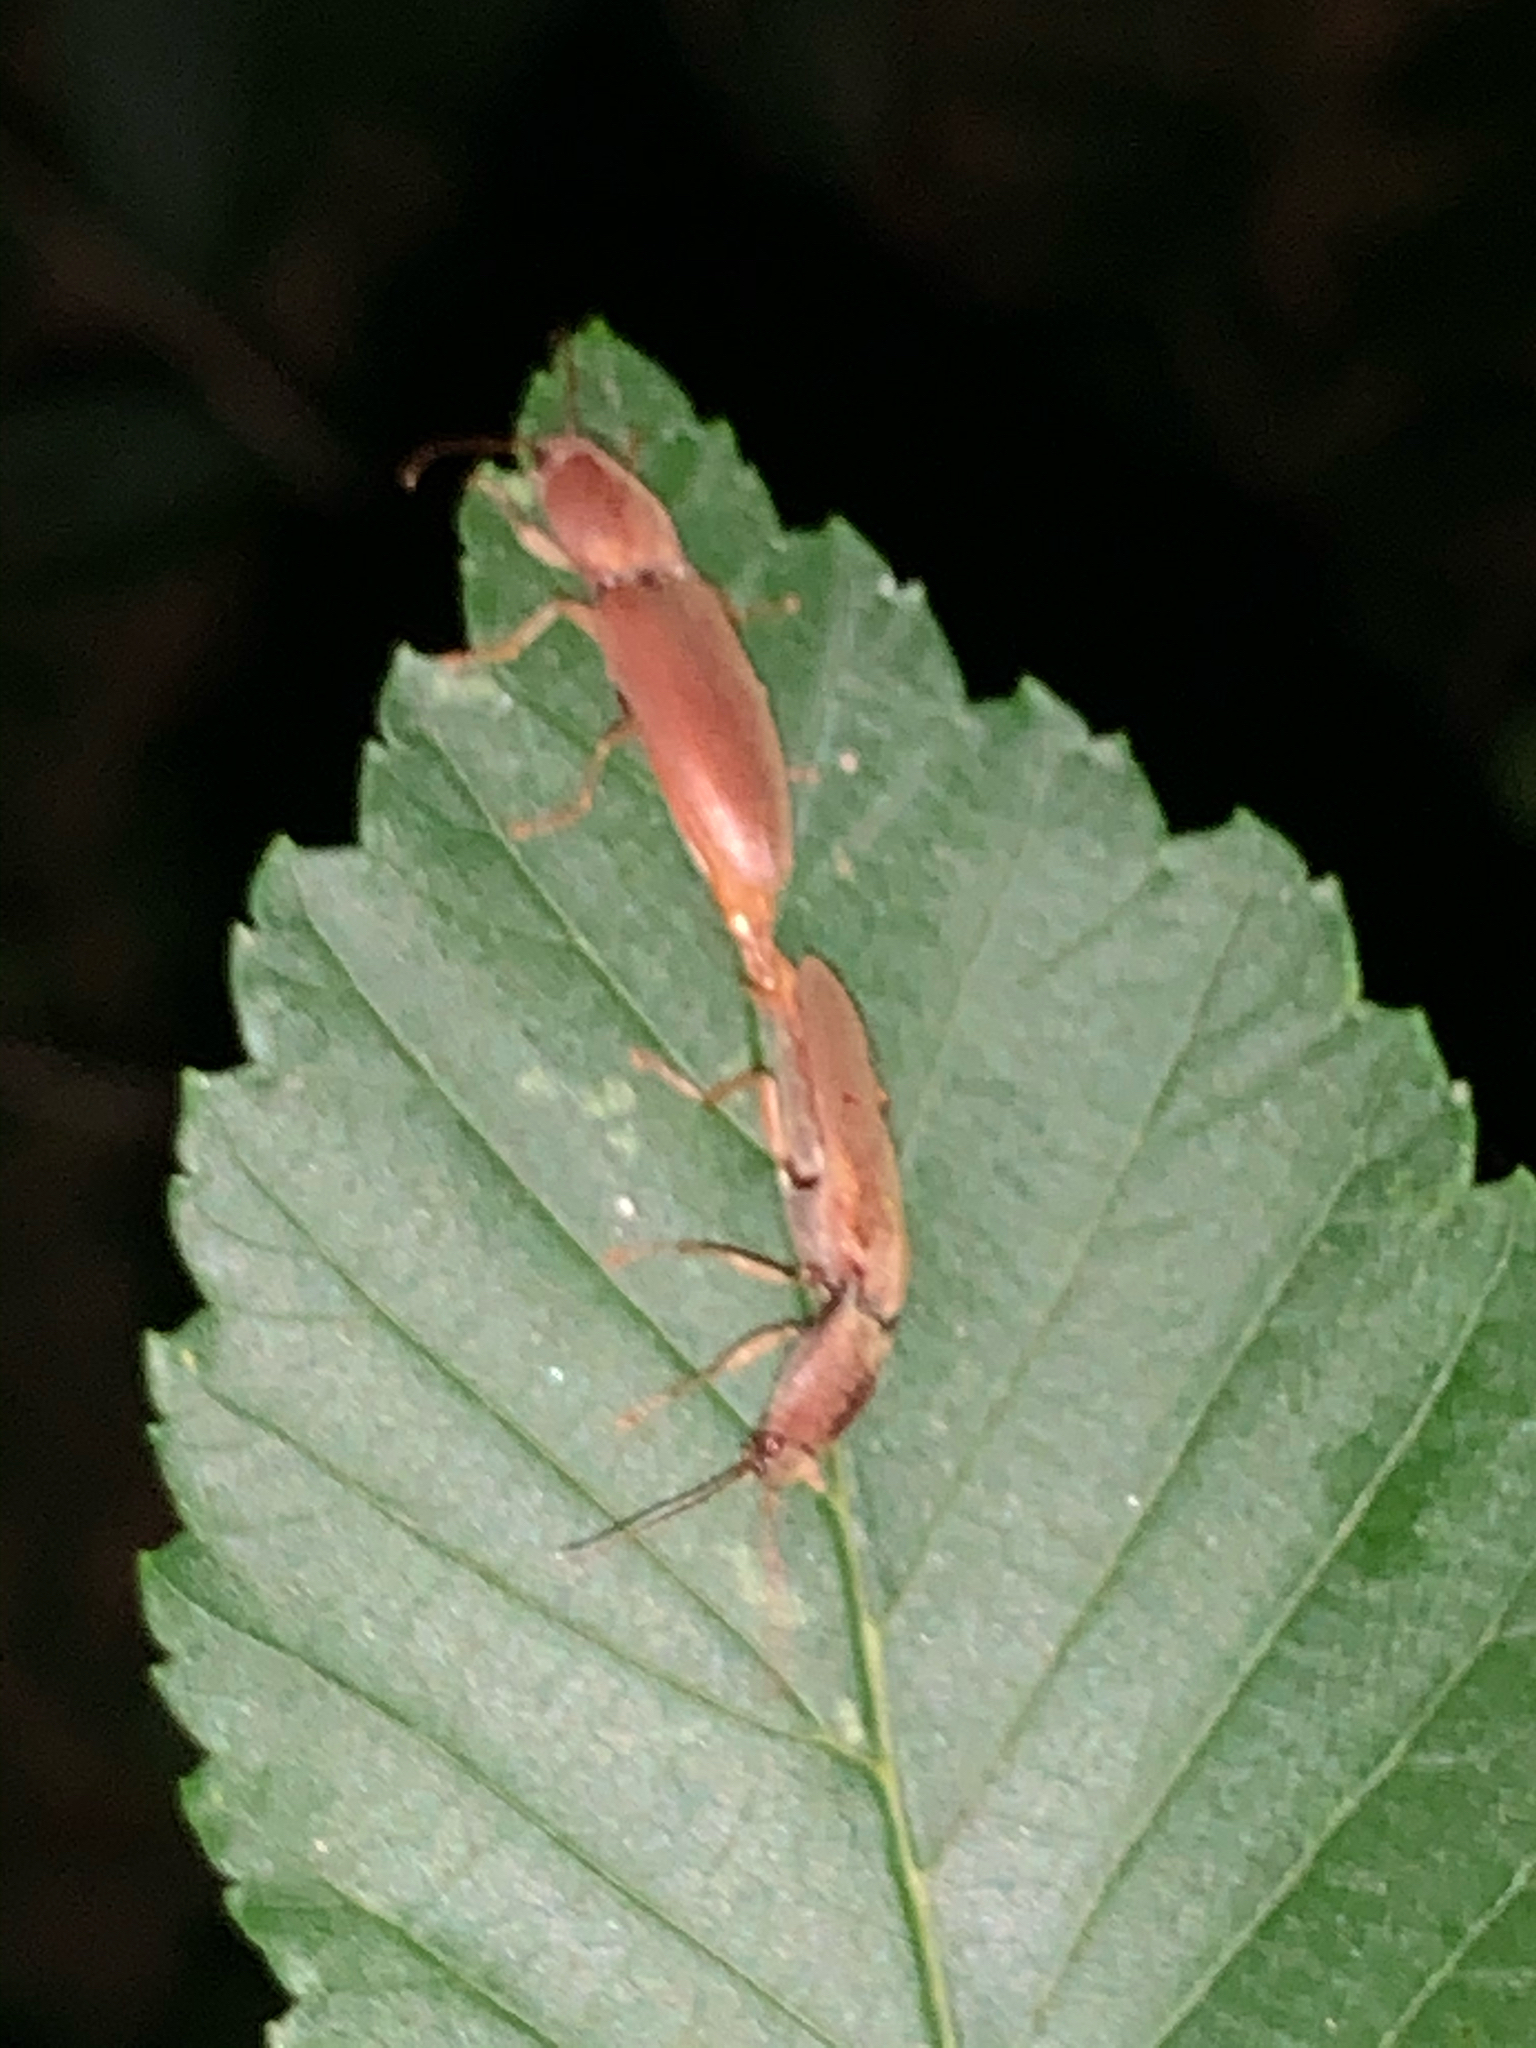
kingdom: Animalia
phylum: Arthropoda
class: Insecta
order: Coleoptera
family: Elateridae
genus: Monocrepidius
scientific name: Monocrepidius lividus
